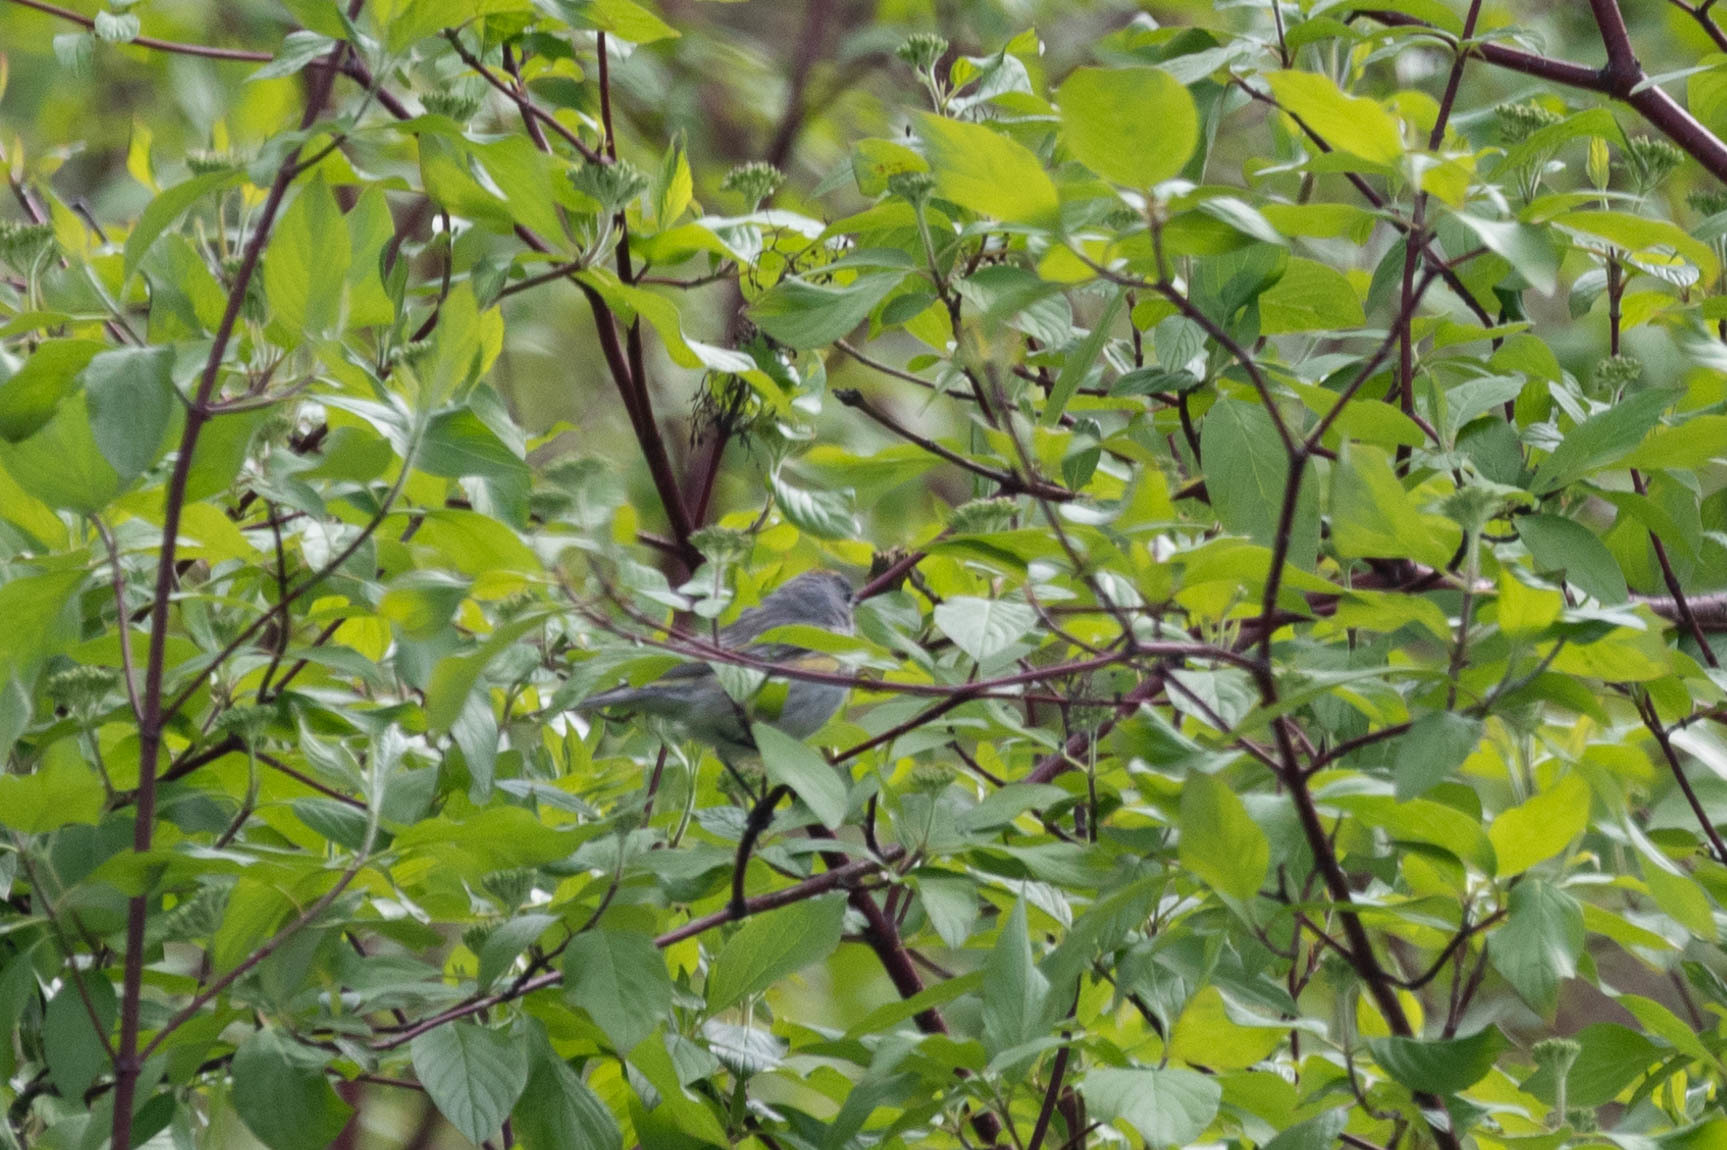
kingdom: Animalia
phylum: Chordata
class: Aves
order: Passeriformes
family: Parulidae
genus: Setophaga
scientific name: Setophaga coronata
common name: Myrtle warbler
